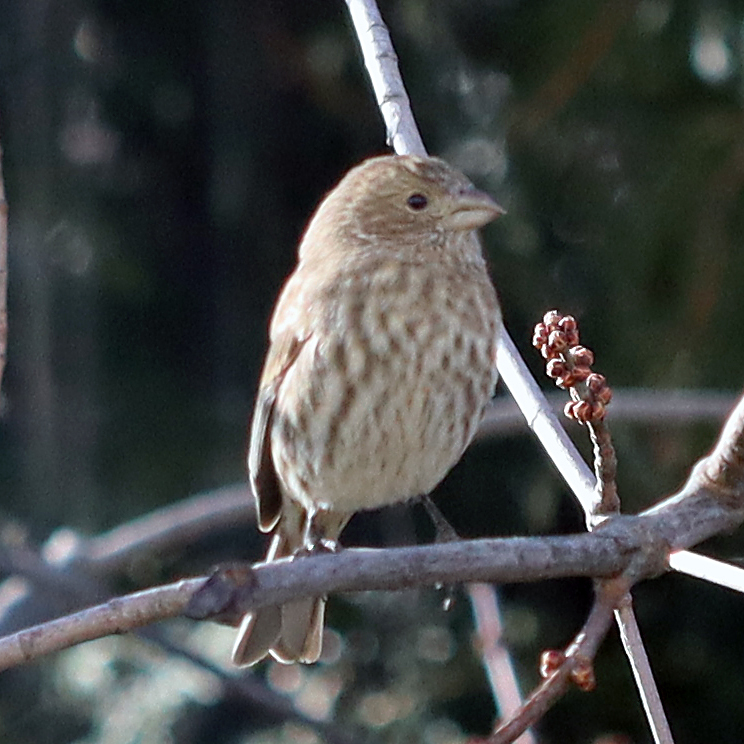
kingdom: Animalia
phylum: Chordata
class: Aves
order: Passeriformes
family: Fringillidae
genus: Haemorhous
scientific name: Haemorhous mexicanus
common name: House finch
